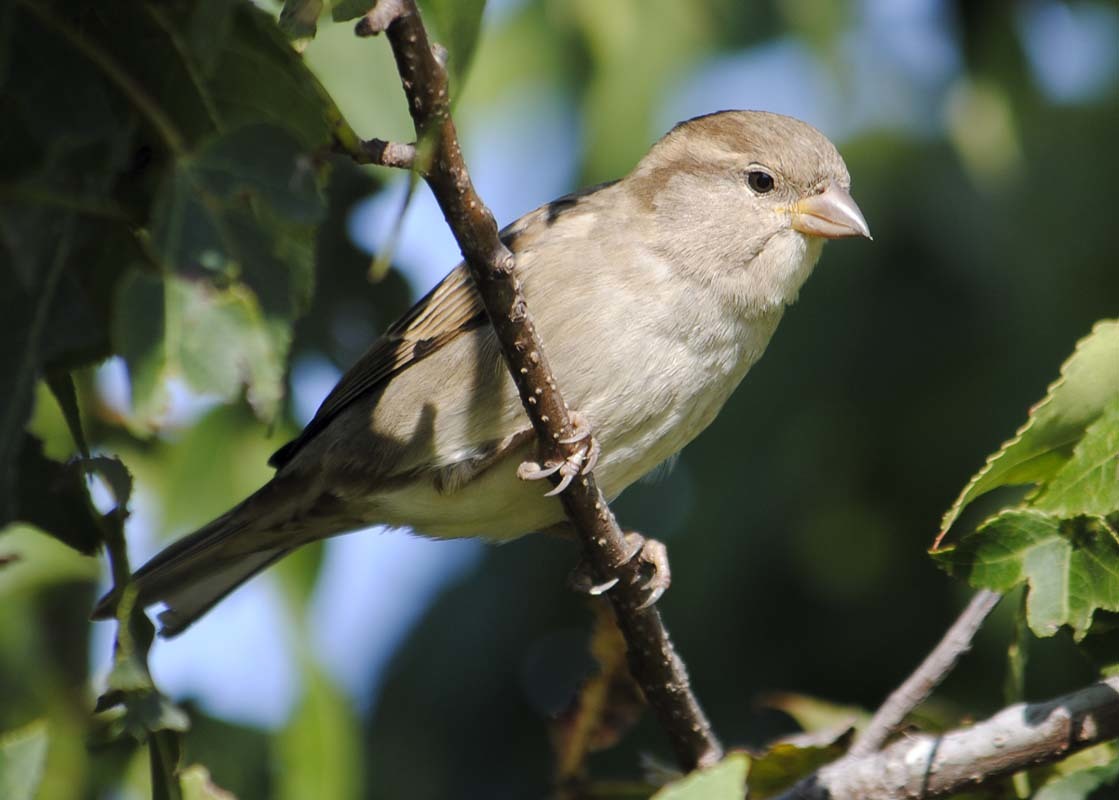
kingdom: Animalia
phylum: Chordata
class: Aves
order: Passeriformes
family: Passeridae
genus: Passer
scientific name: Passer domesticus
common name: House sparrow
